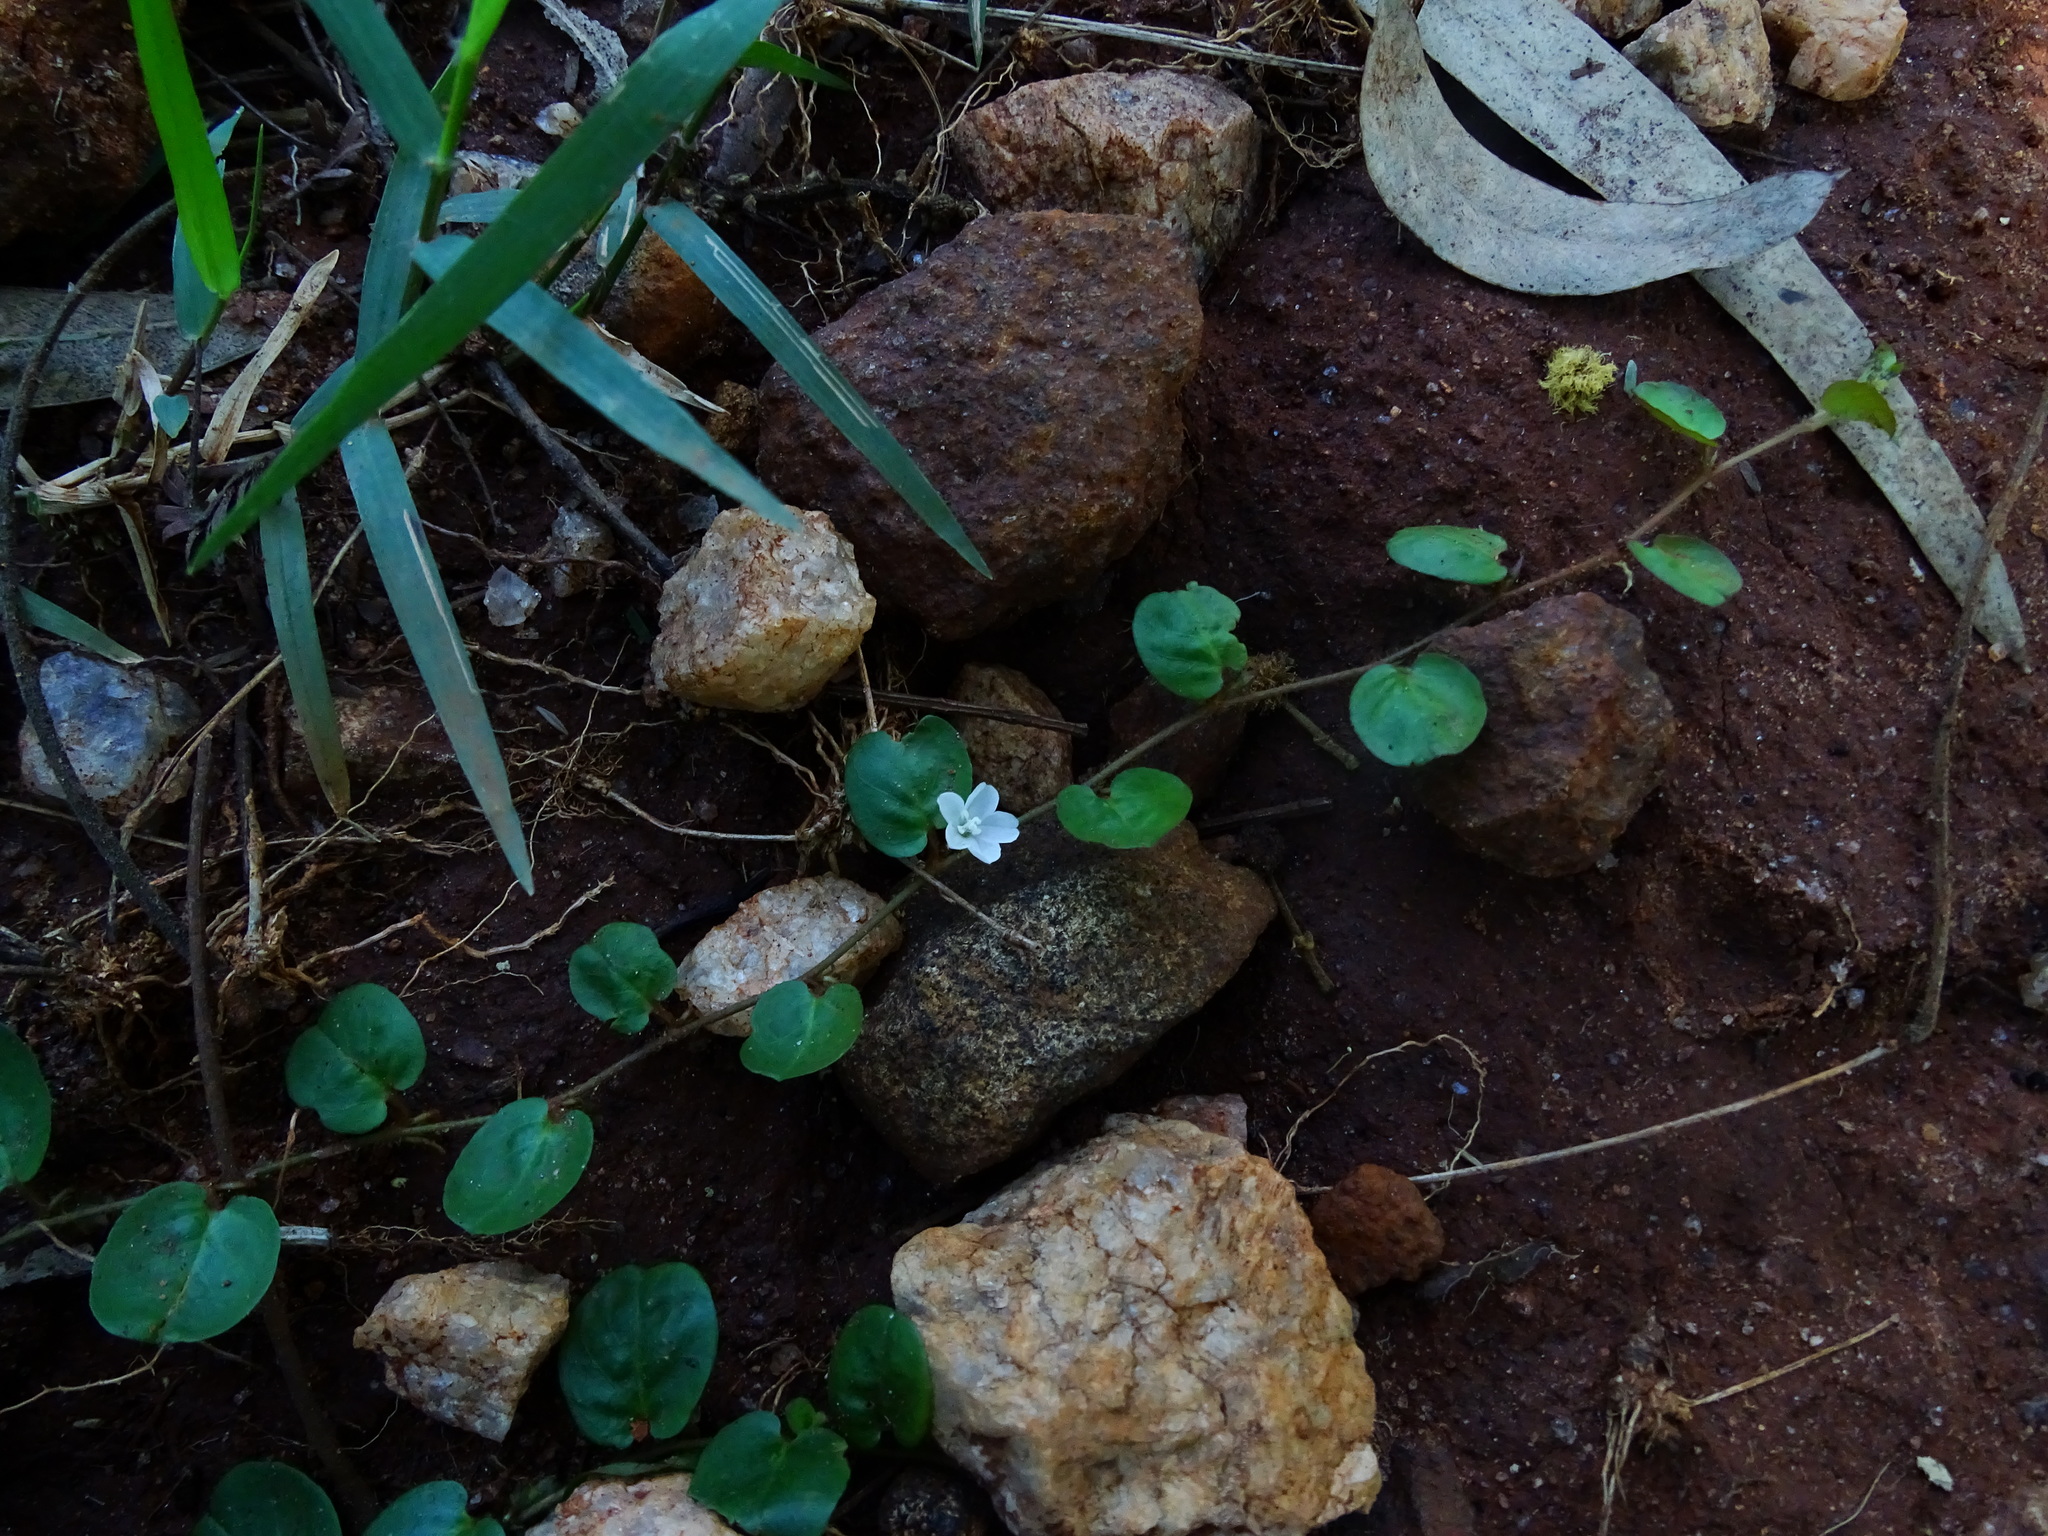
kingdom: Plantae
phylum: Tracheophyta
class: Magnoliopsida
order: Solanales
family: Convolvulaceae
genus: Evolvulus
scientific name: Evolvulus nummularius
